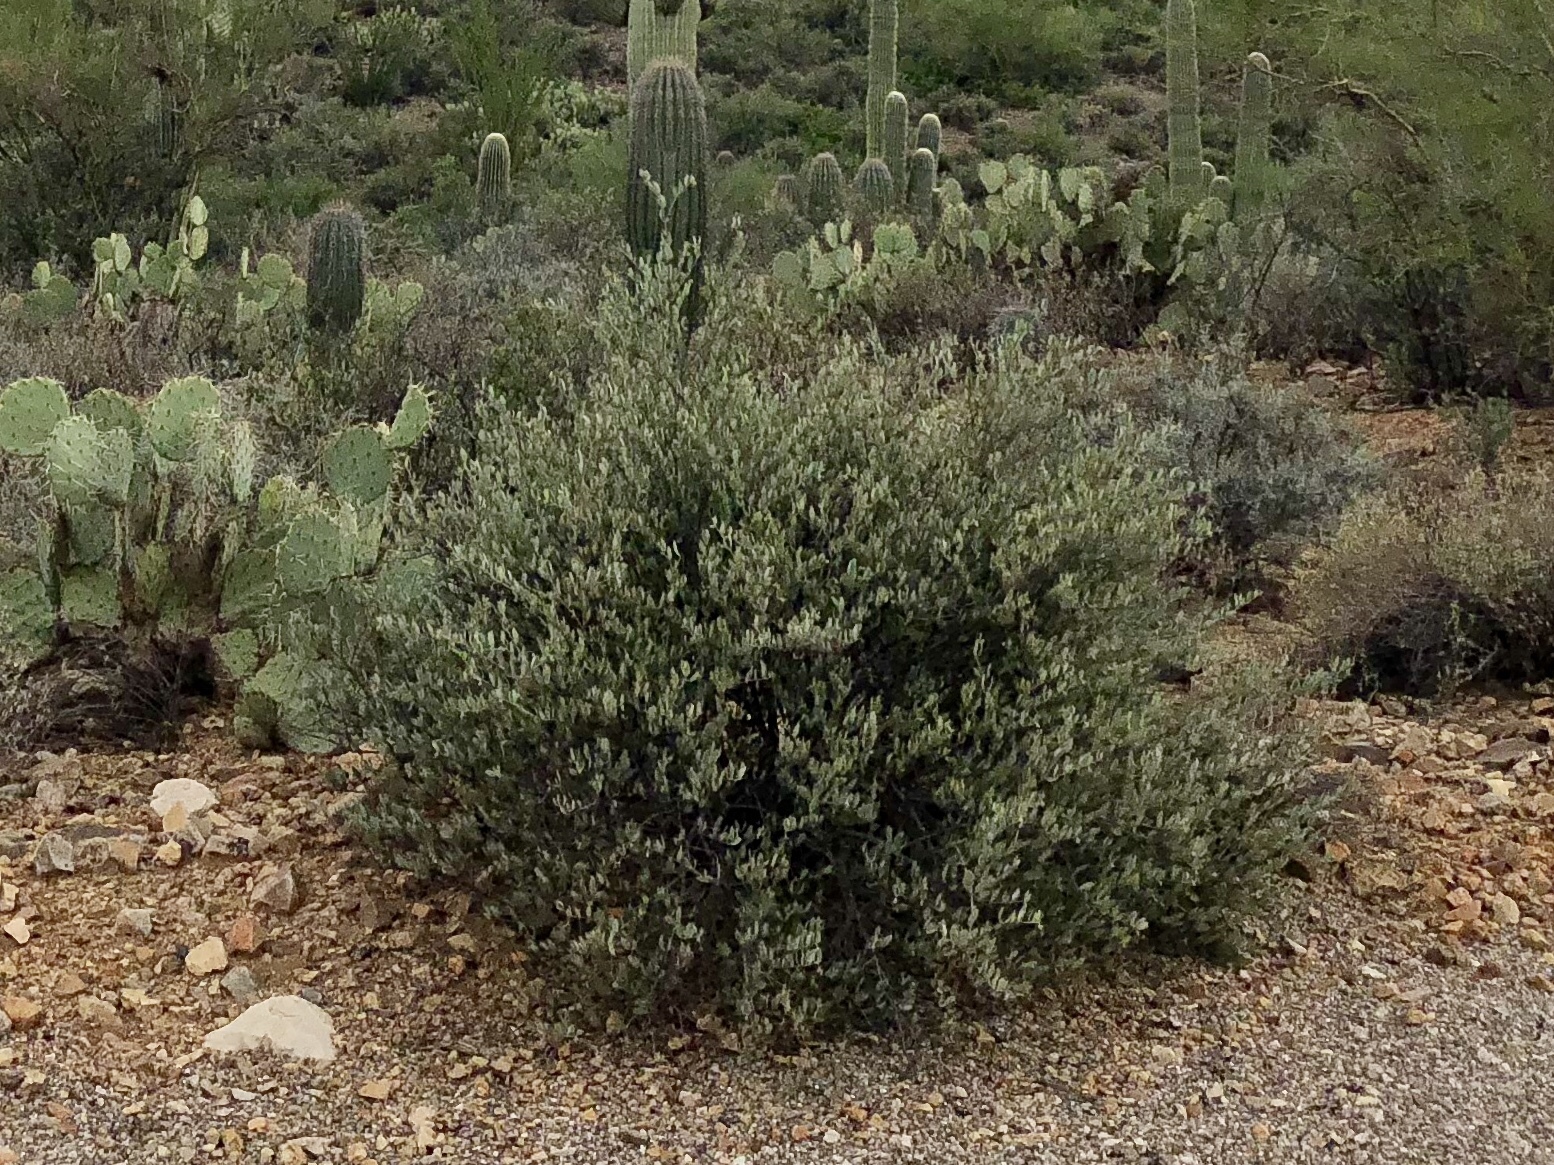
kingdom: Plantae
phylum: Tracheophyta
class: Magnoliopsida
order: Caryophyllales
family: Simmondsiaceae
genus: Simmondsia
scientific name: Simmondsia chinensis
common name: Jojoba
